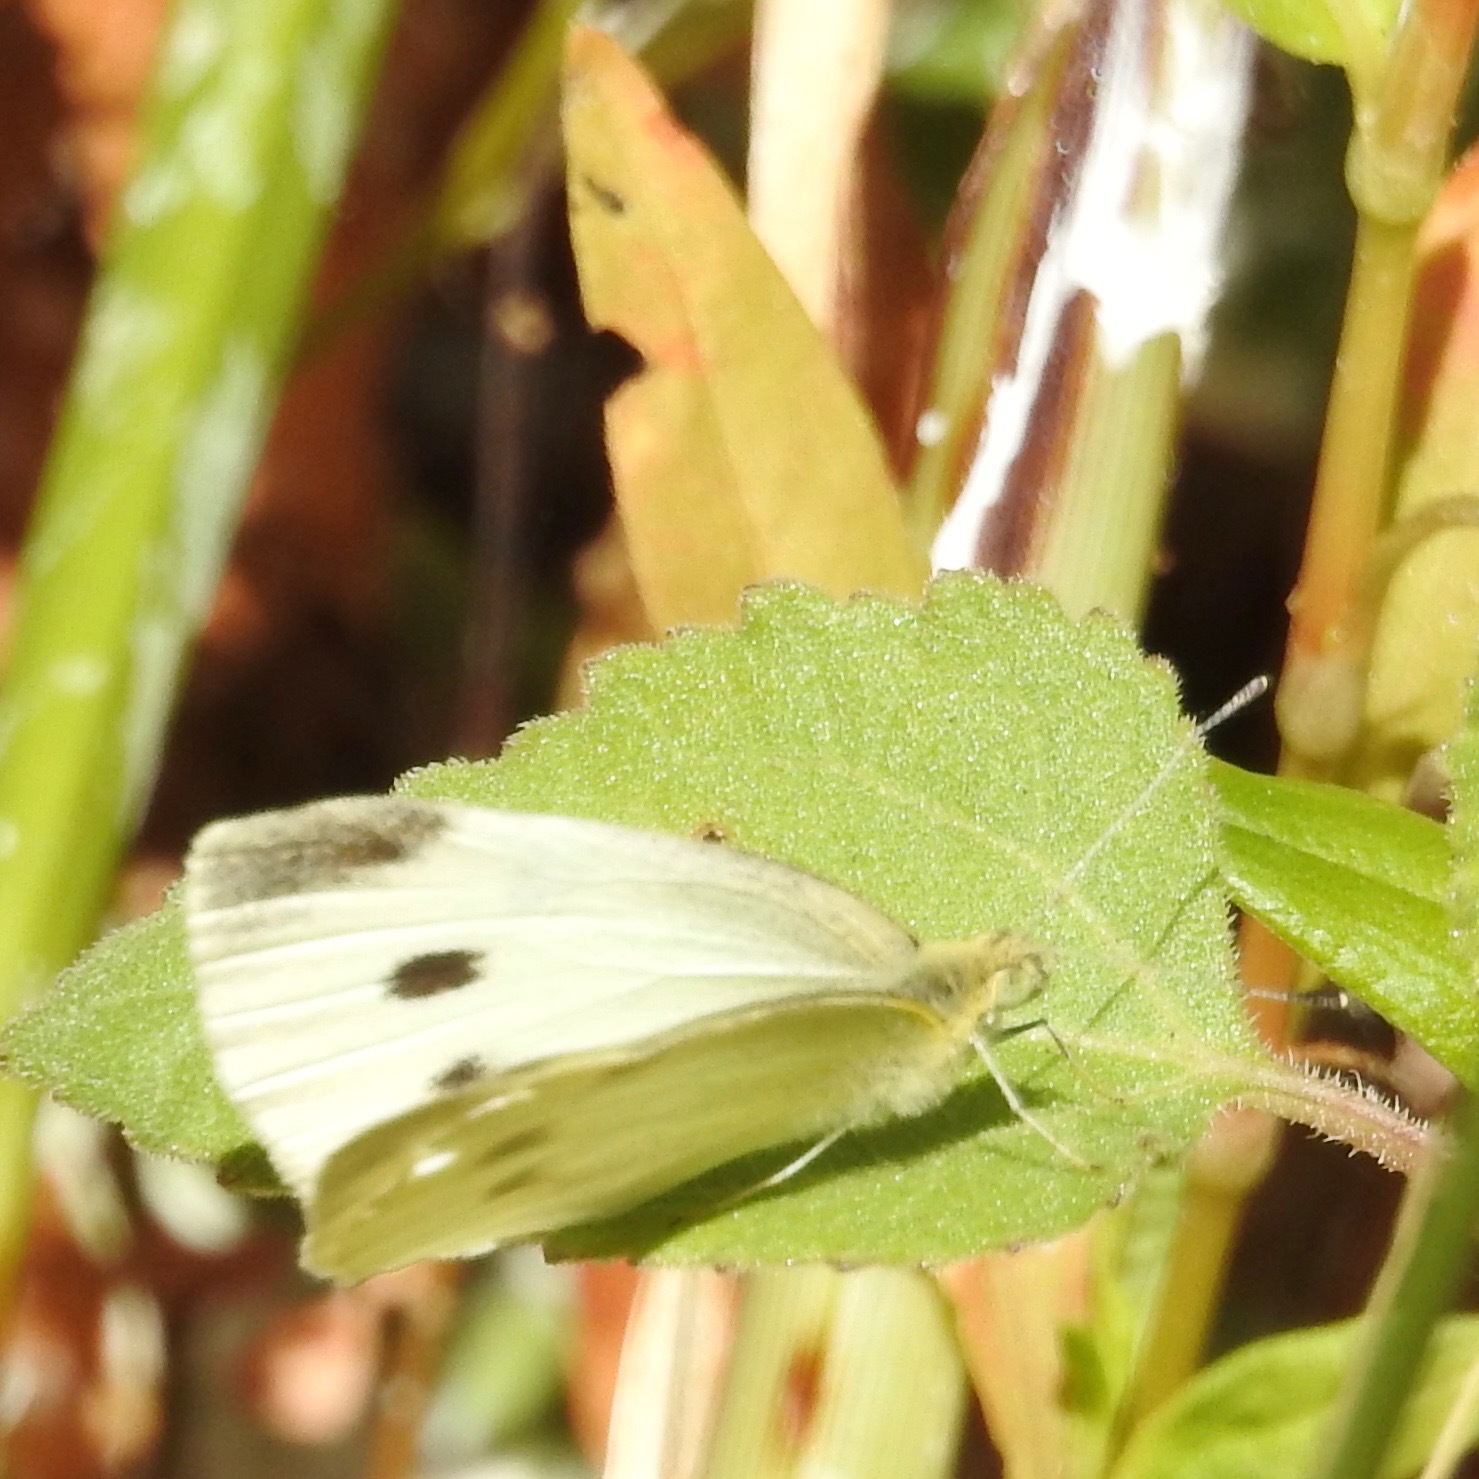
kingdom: Animalia
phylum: Arthropoda
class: Insecta
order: Lepidoptera
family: Pieridae
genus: Pieris
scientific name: Pieris rapae
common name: Small white
